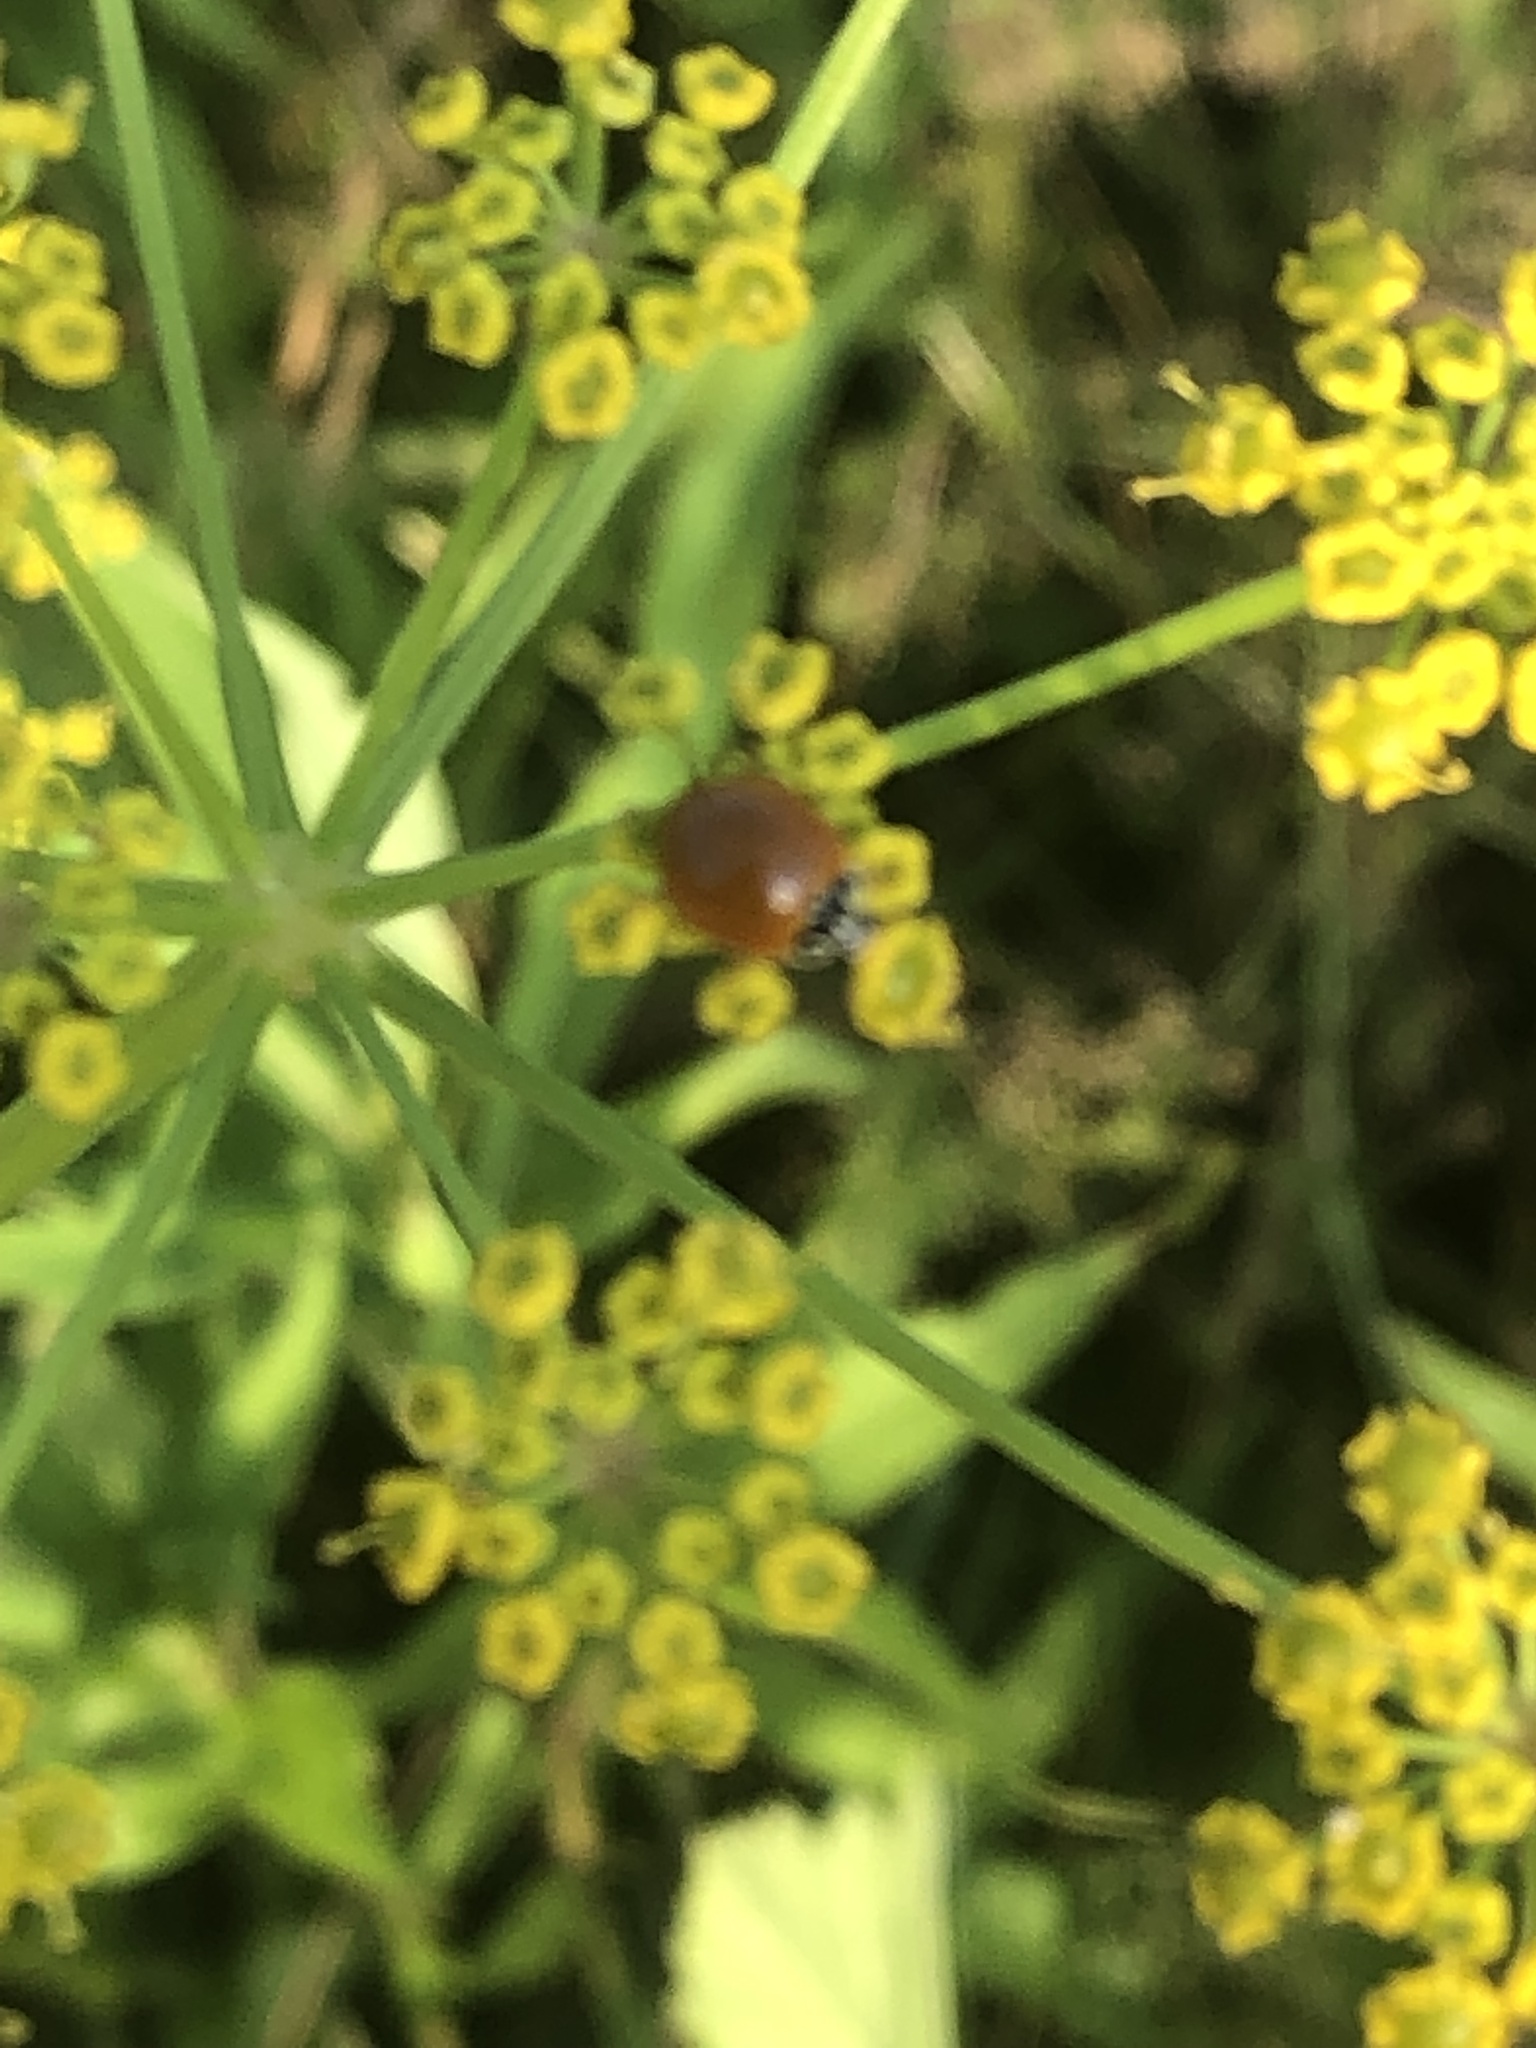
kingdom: Animalia
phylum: Arthropoda
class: Insecta
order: Coleoptera
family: Coccinellidae
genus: Cycloneda
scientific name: Cycloneda munda
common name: Polished lady beetle
